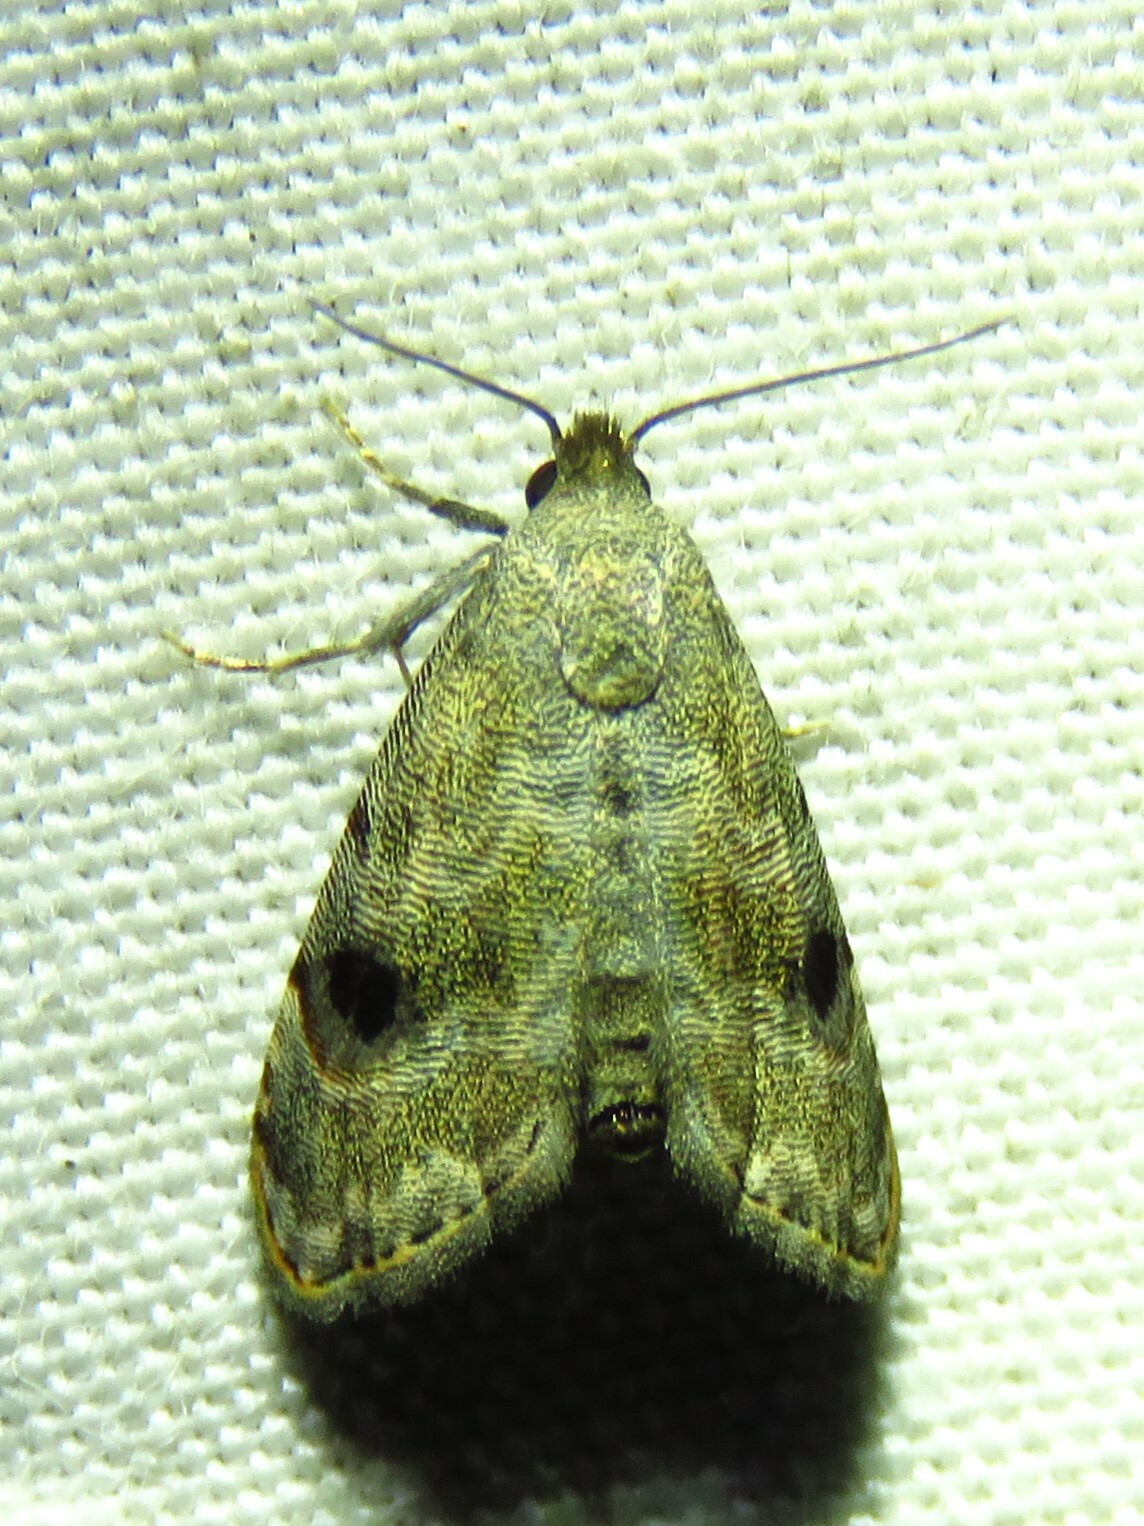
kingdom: Animalia
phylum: Arthropoda
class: Insecta
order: Lepidoptera
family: Noctuidae
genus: Abablemma
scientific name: Abablemma brimleyana
